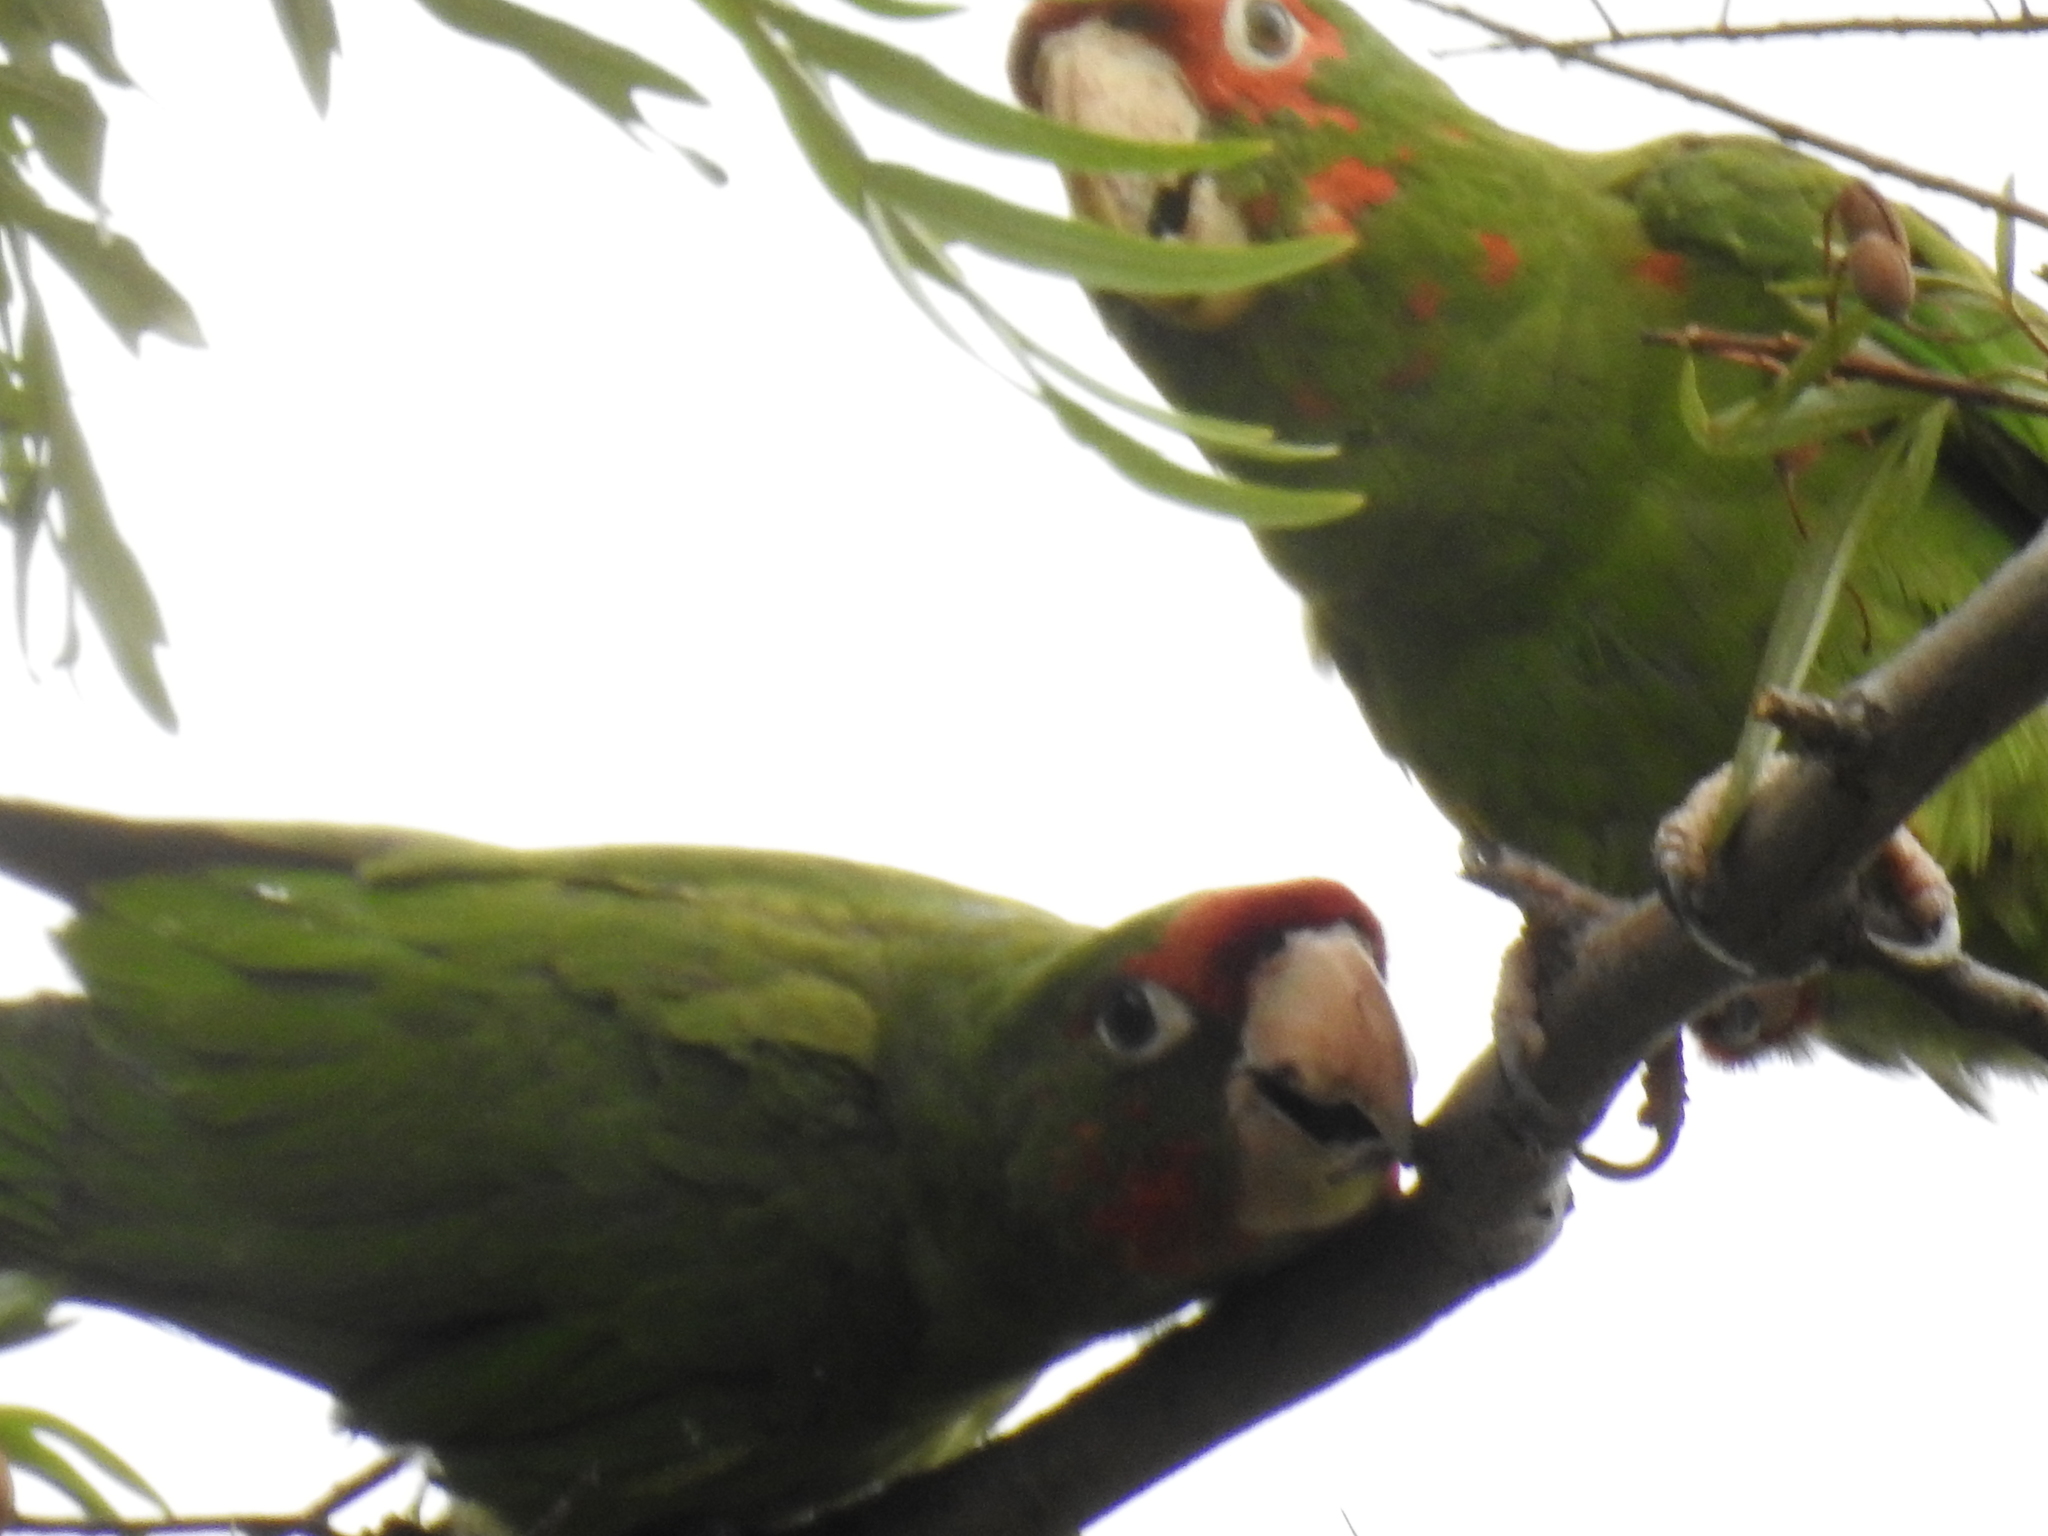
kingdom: Animalia
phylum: Chordata
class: Aves
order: Psittaciformes
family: Psittacidae
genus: Aratinga
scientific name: Aratinga mitrata
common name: Mitred parakeet
